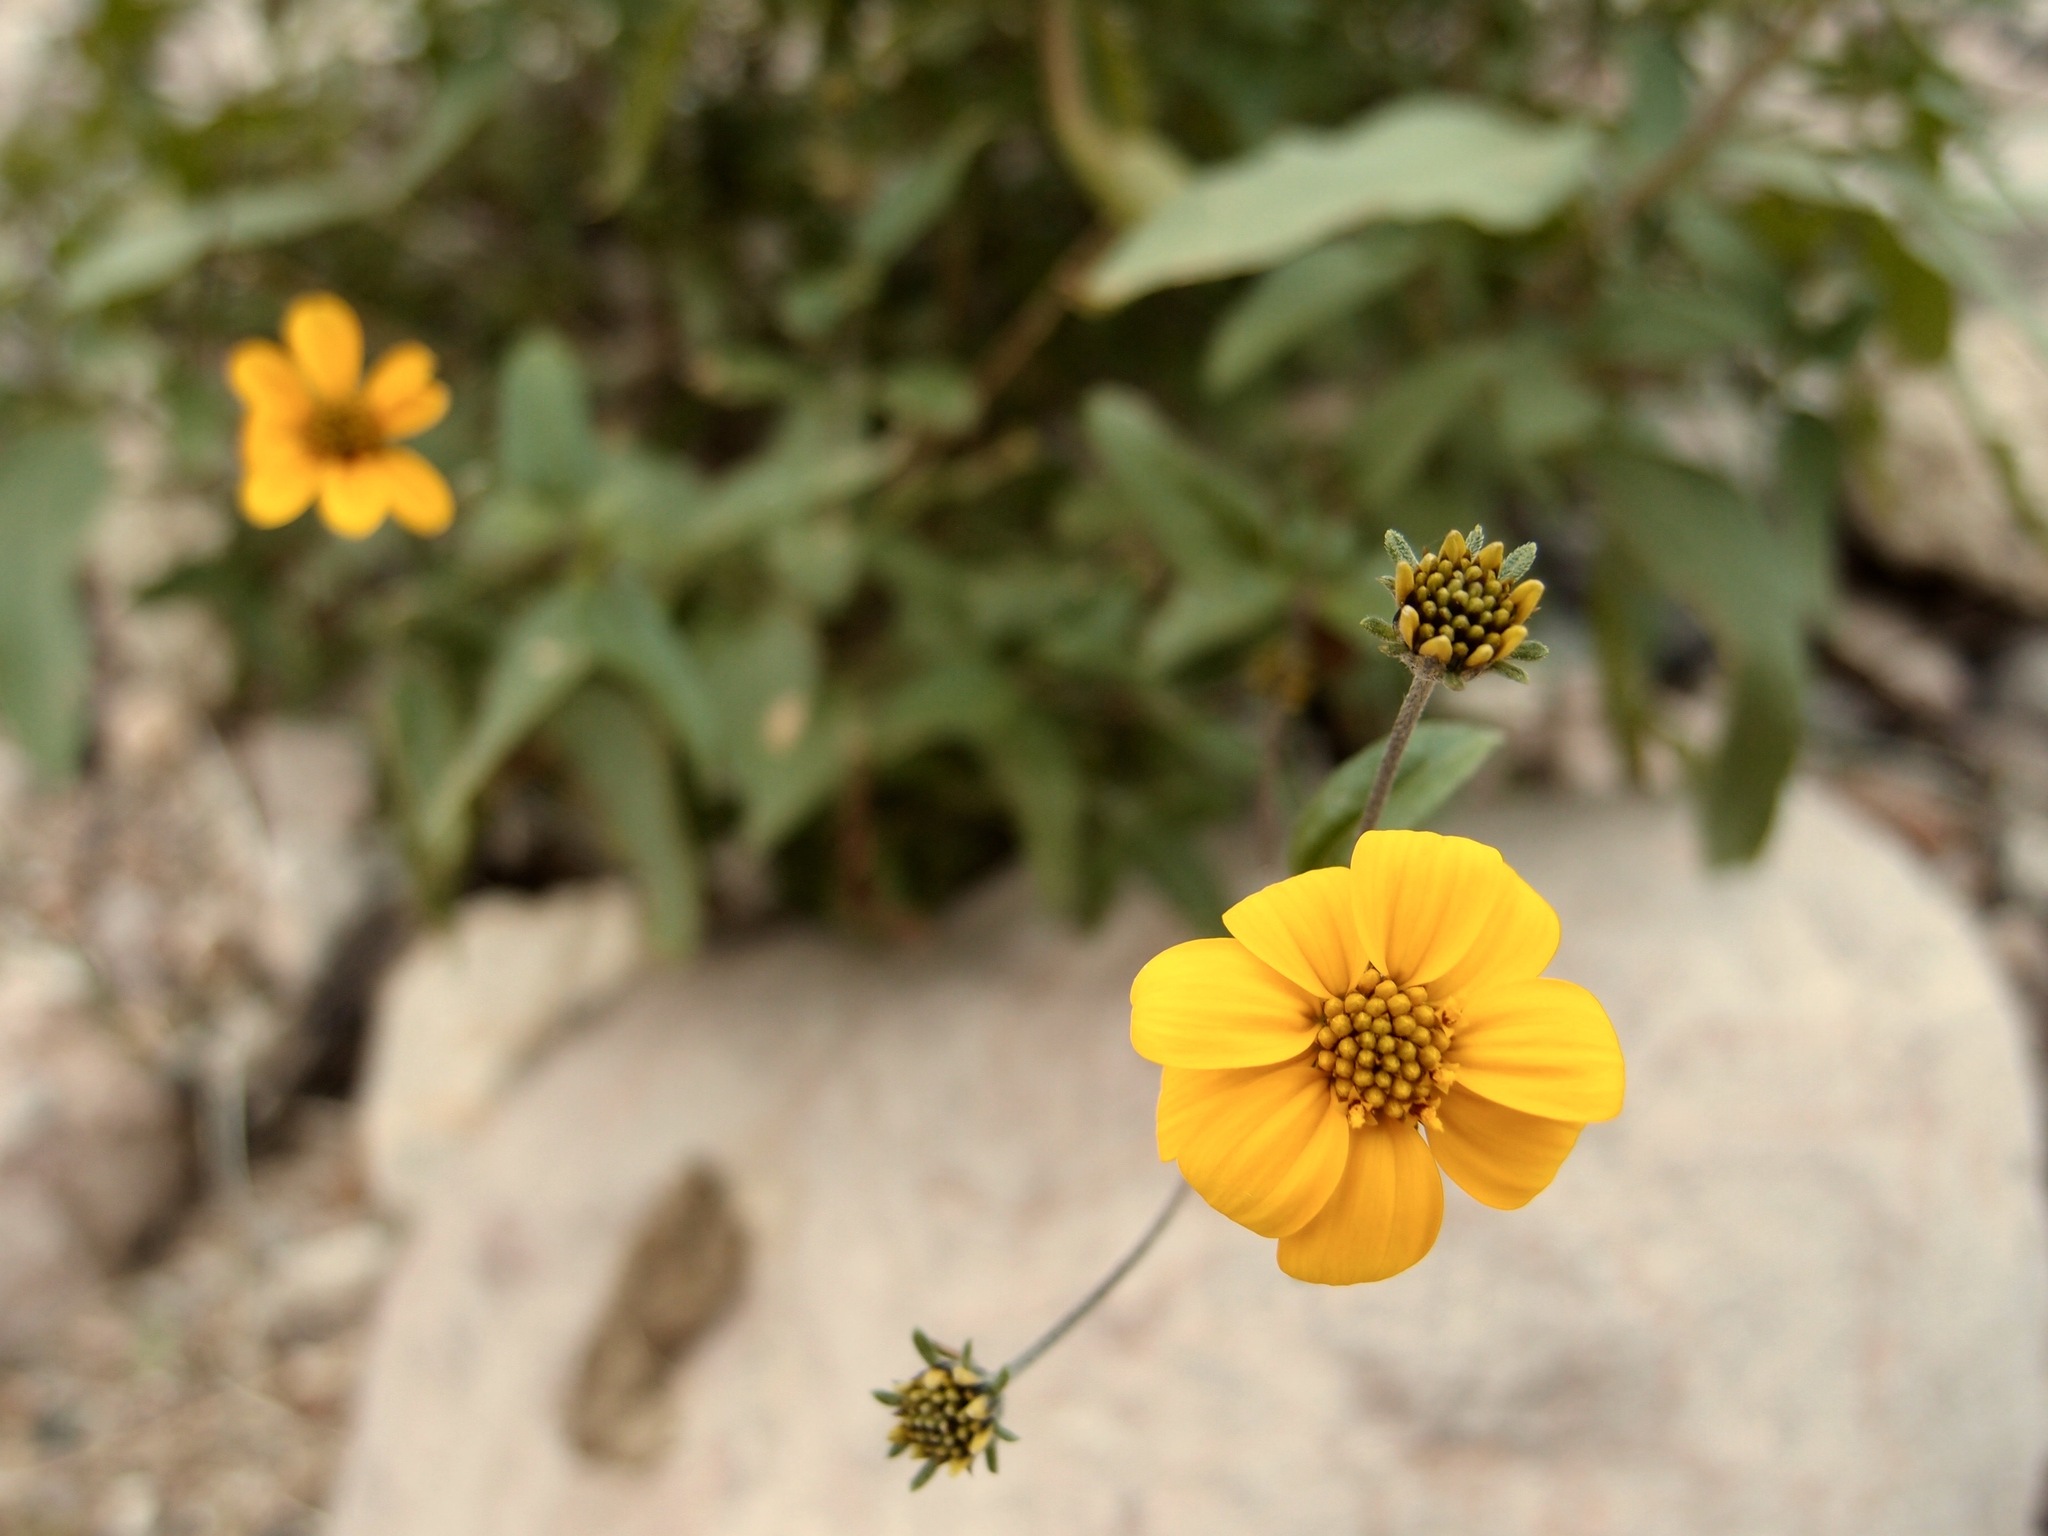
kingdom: Plantae
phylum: Tracheophyta
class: Magnoliopsida
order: Asterales
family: Asteraceae
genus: Viguiera
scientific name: Viguiera dentata
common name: Toothleaf
